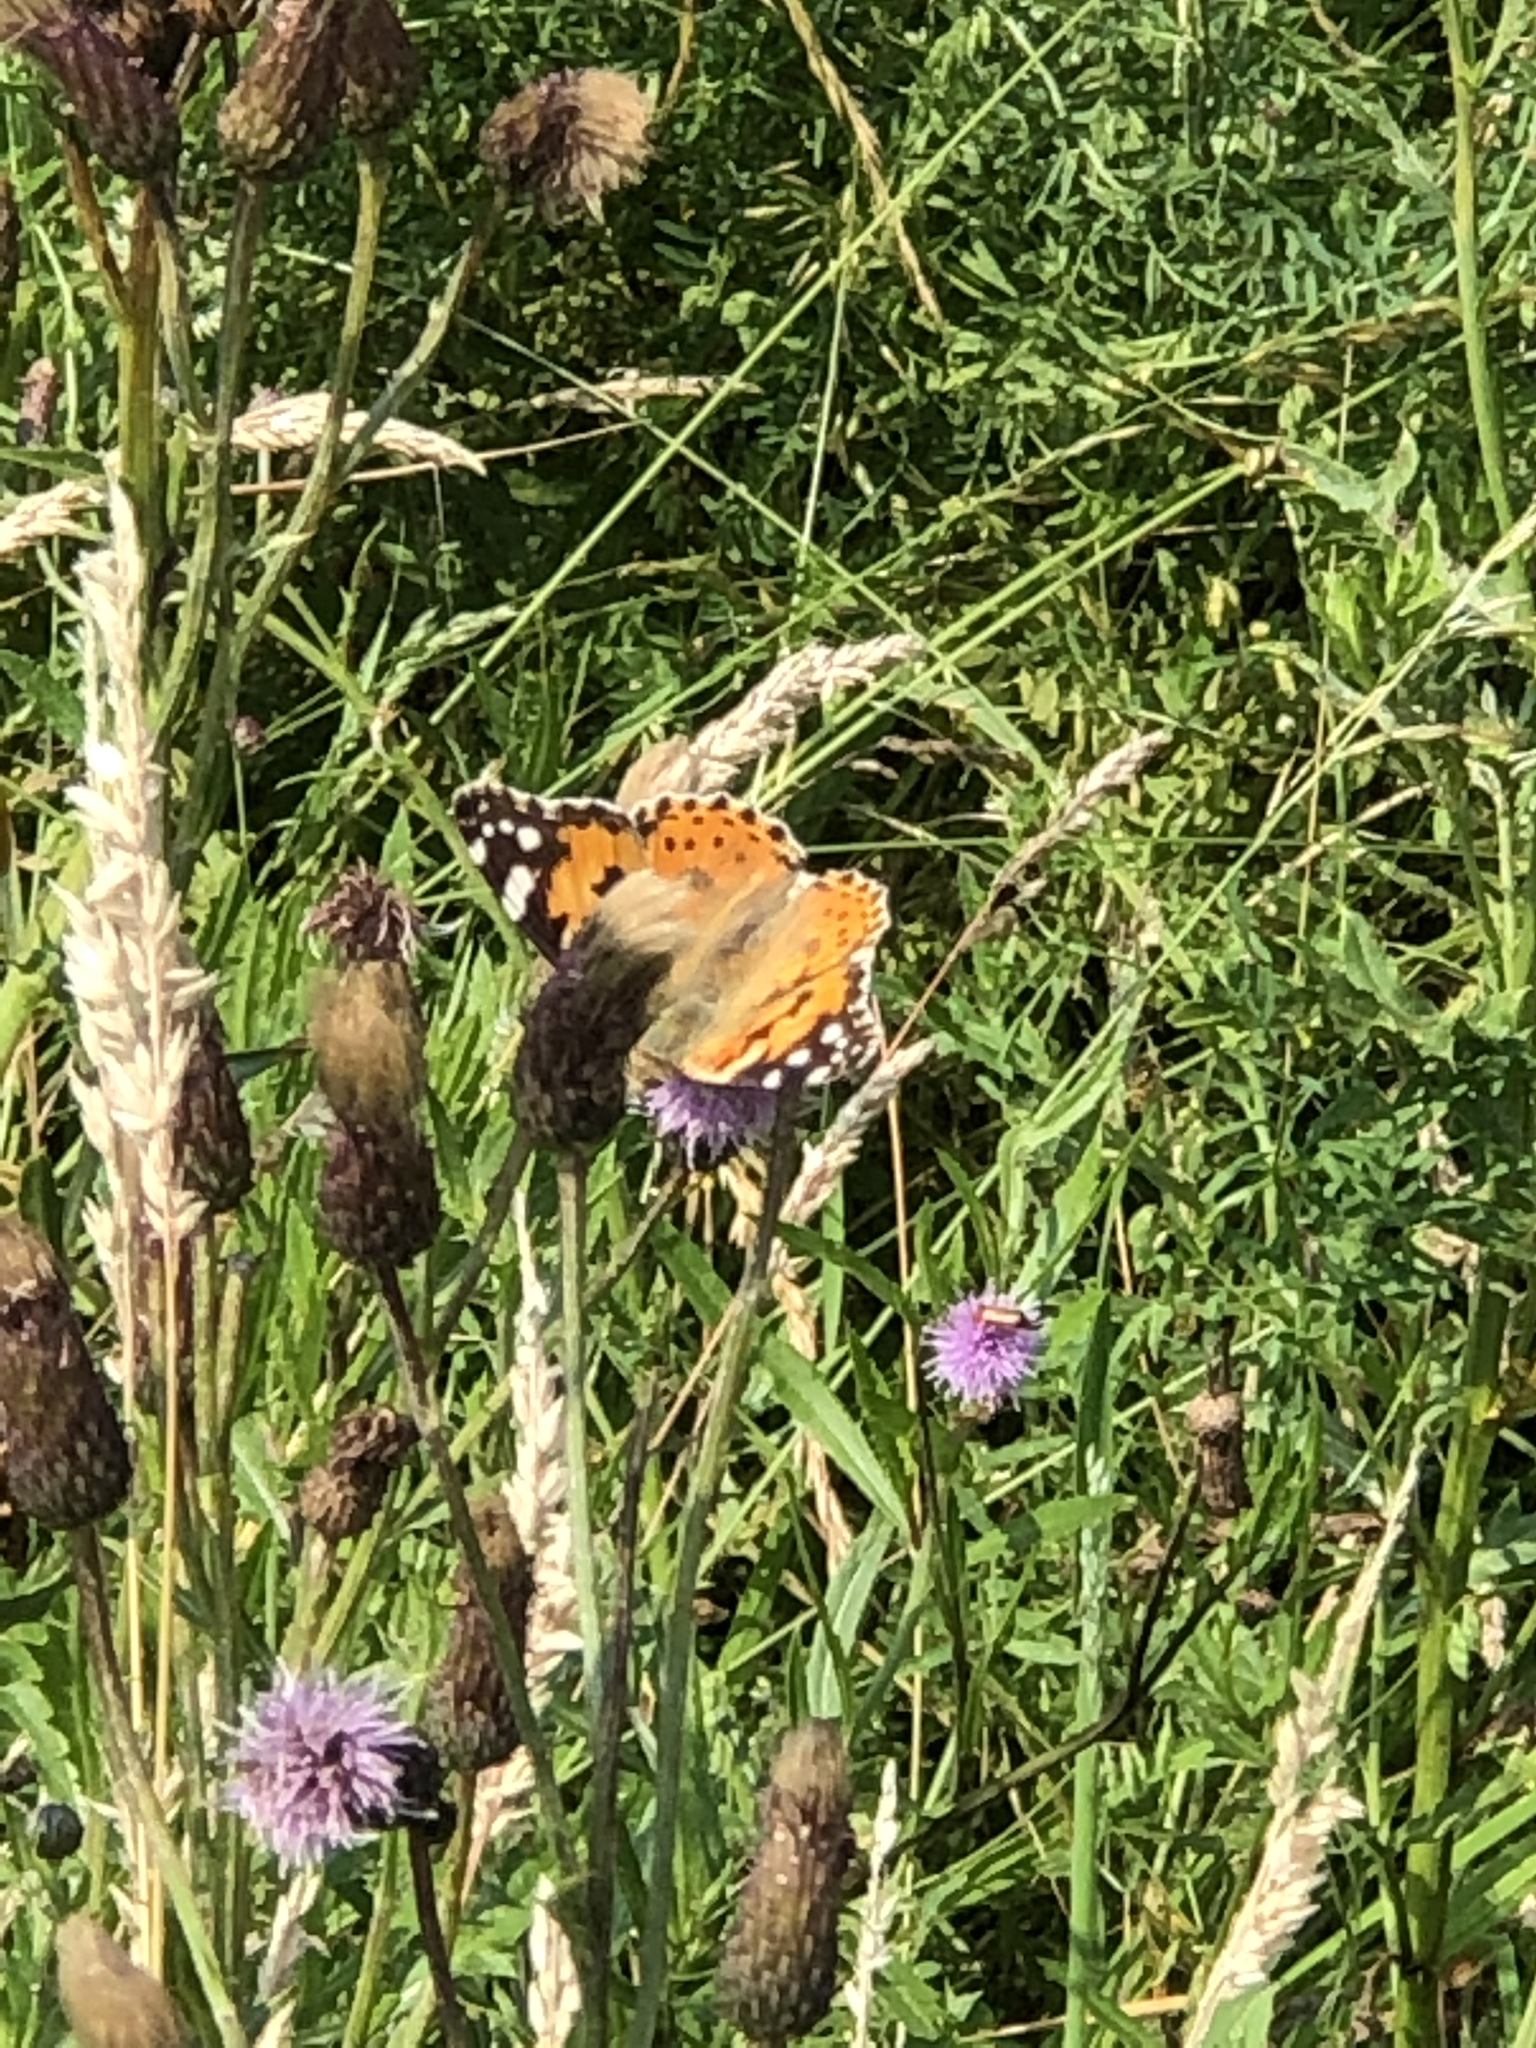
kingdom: Animalia
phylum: Arthropoda
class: Insecta
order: Lepidoptera
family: Nymphalidae
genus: Vanessa
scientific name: Vanessa cardui
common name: Painted lady
